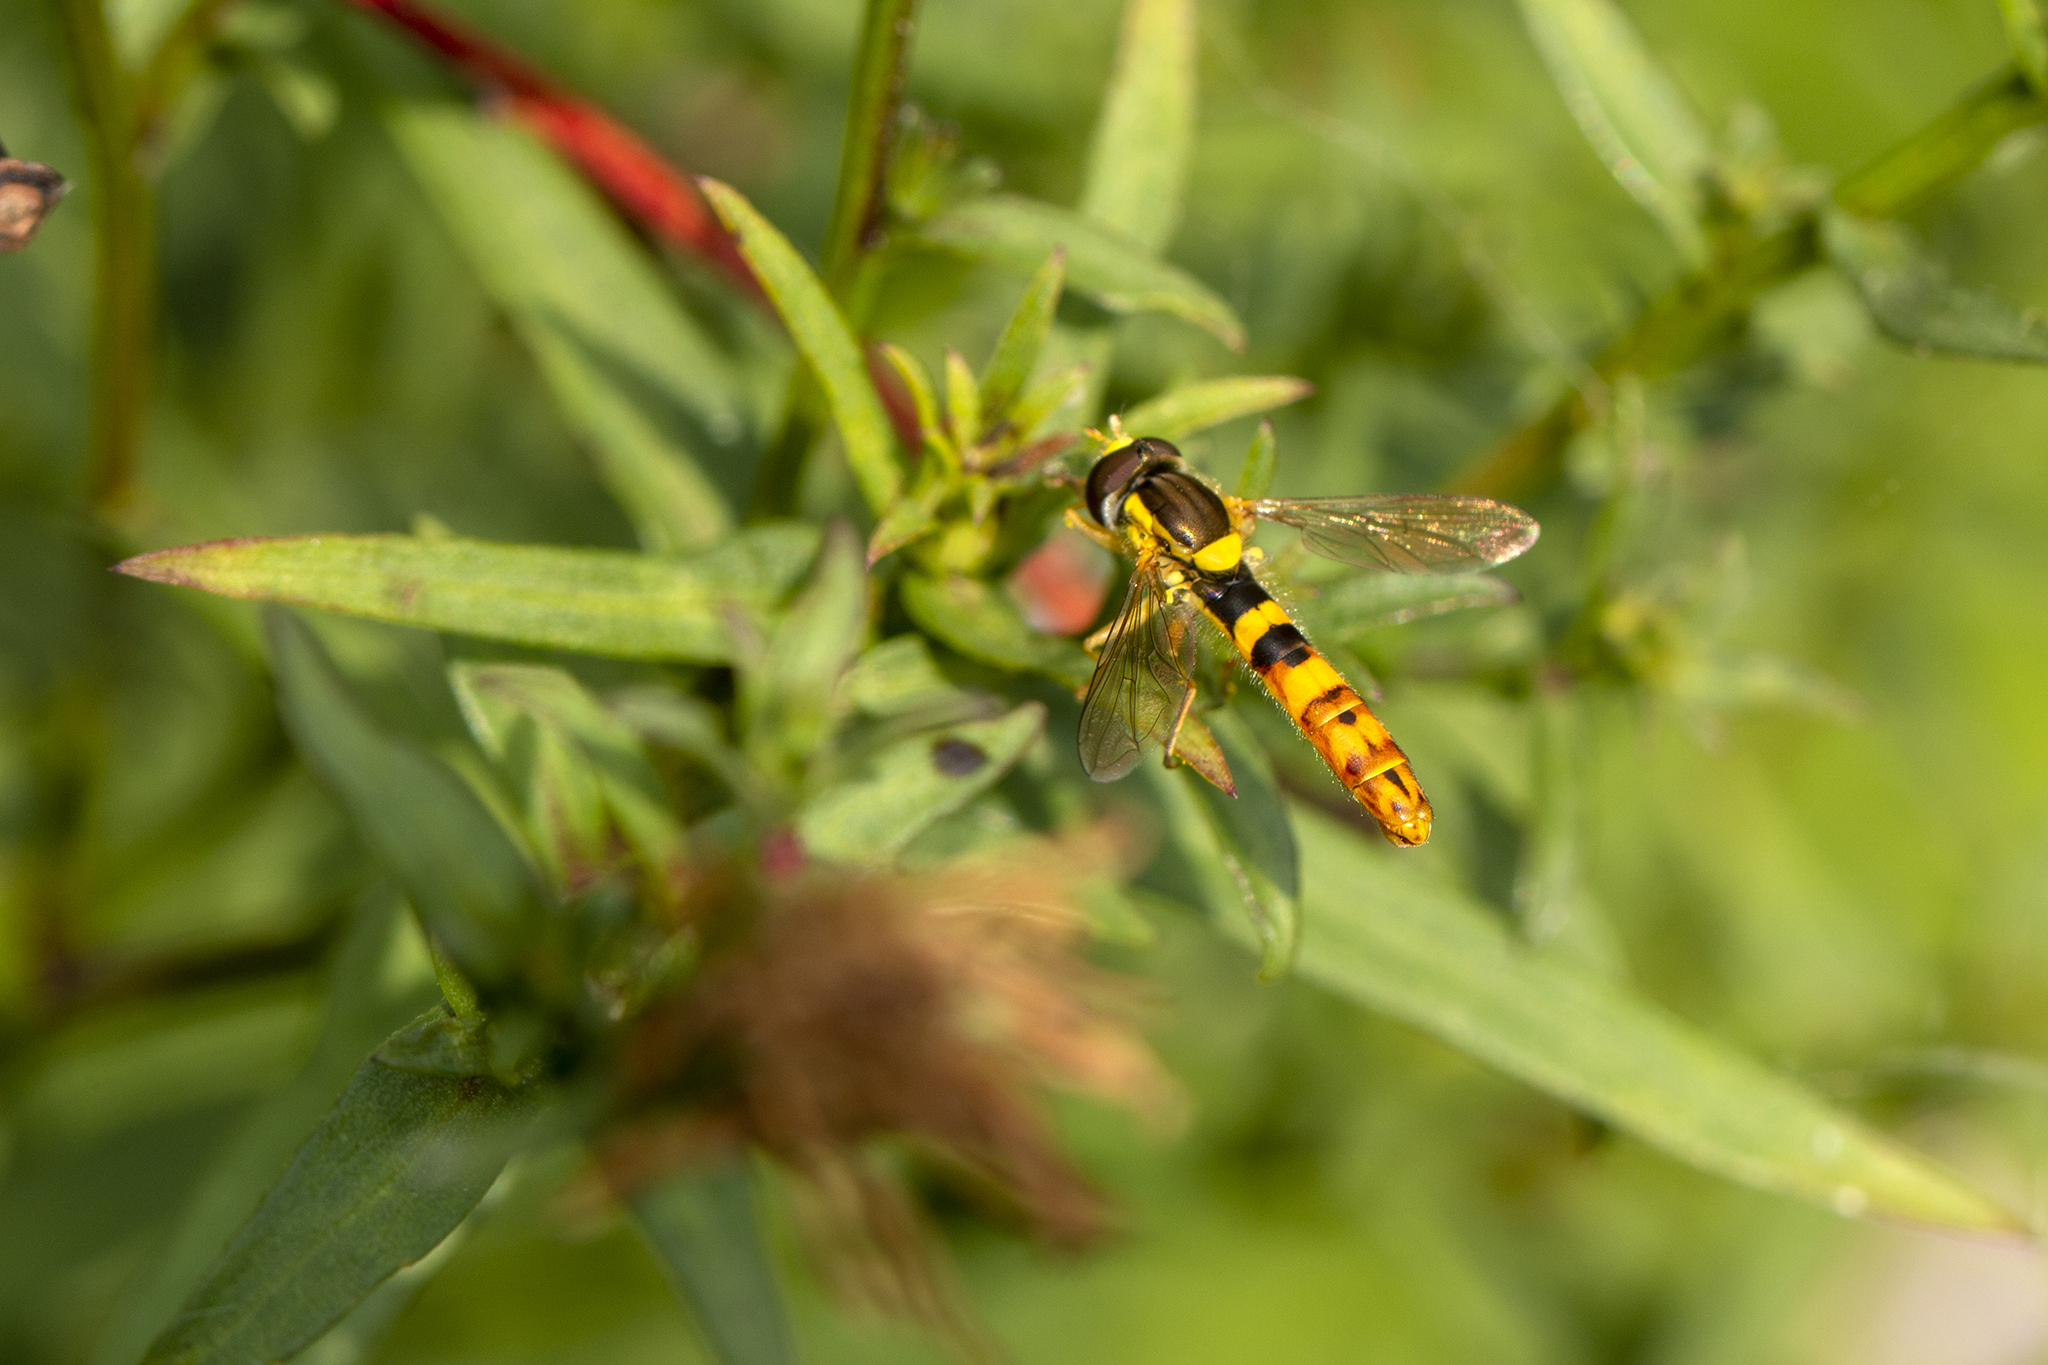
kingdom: Animalia
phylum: Arthropoda
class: Insecta
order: Diptera
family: Syrphidae
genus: Sphaerophoria
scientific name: Sphaerophoria scripta
